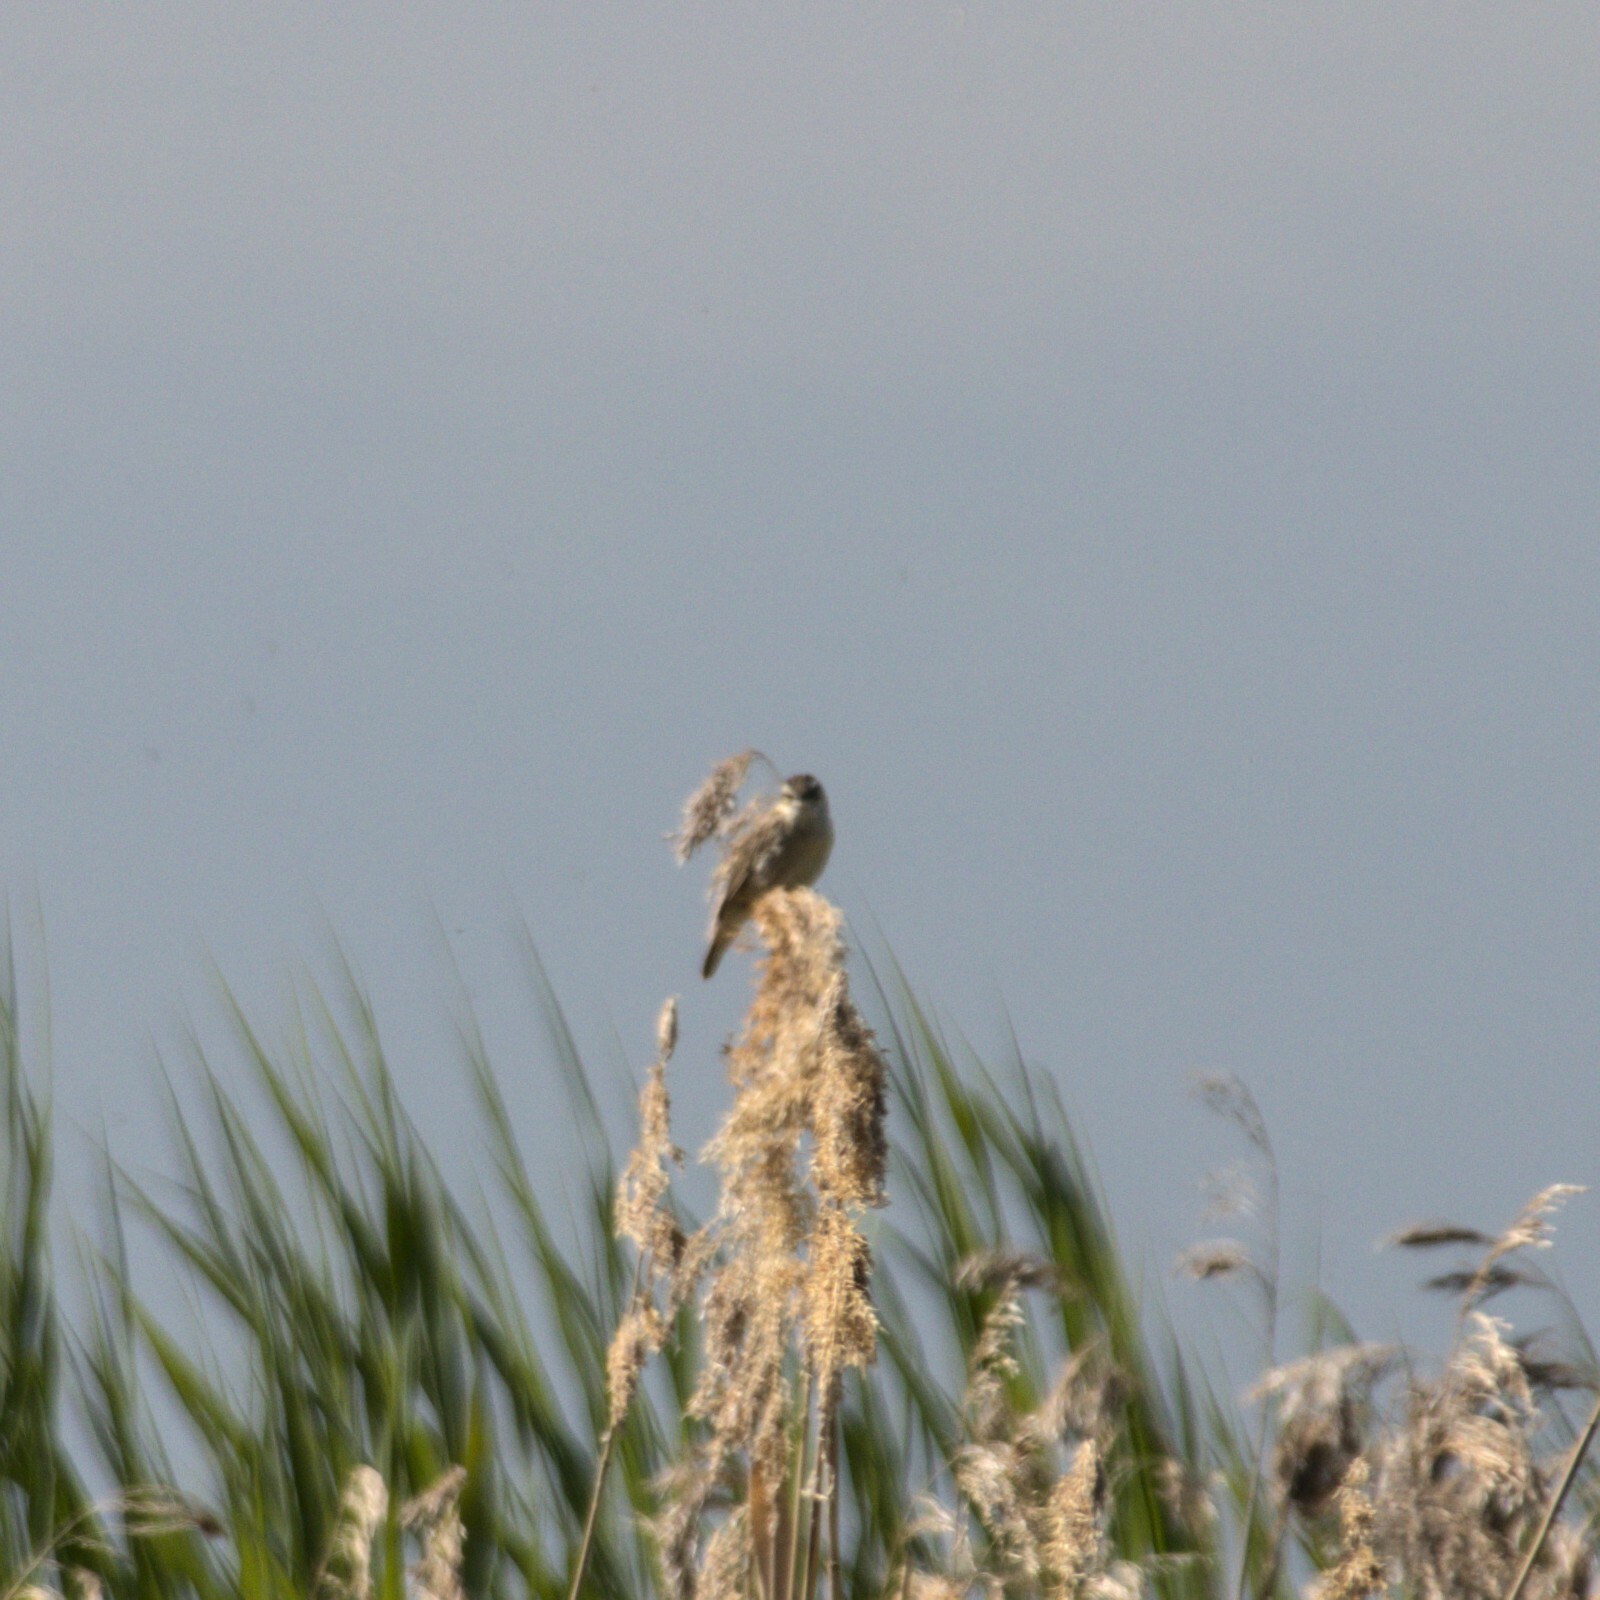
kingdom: Animalia
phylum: Chordata
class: Aves
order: Passeriformes
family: Acrocephalidae
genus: Acrocephalus
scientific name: Acrocephalus schoenobaenus
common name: Sedge warbler
